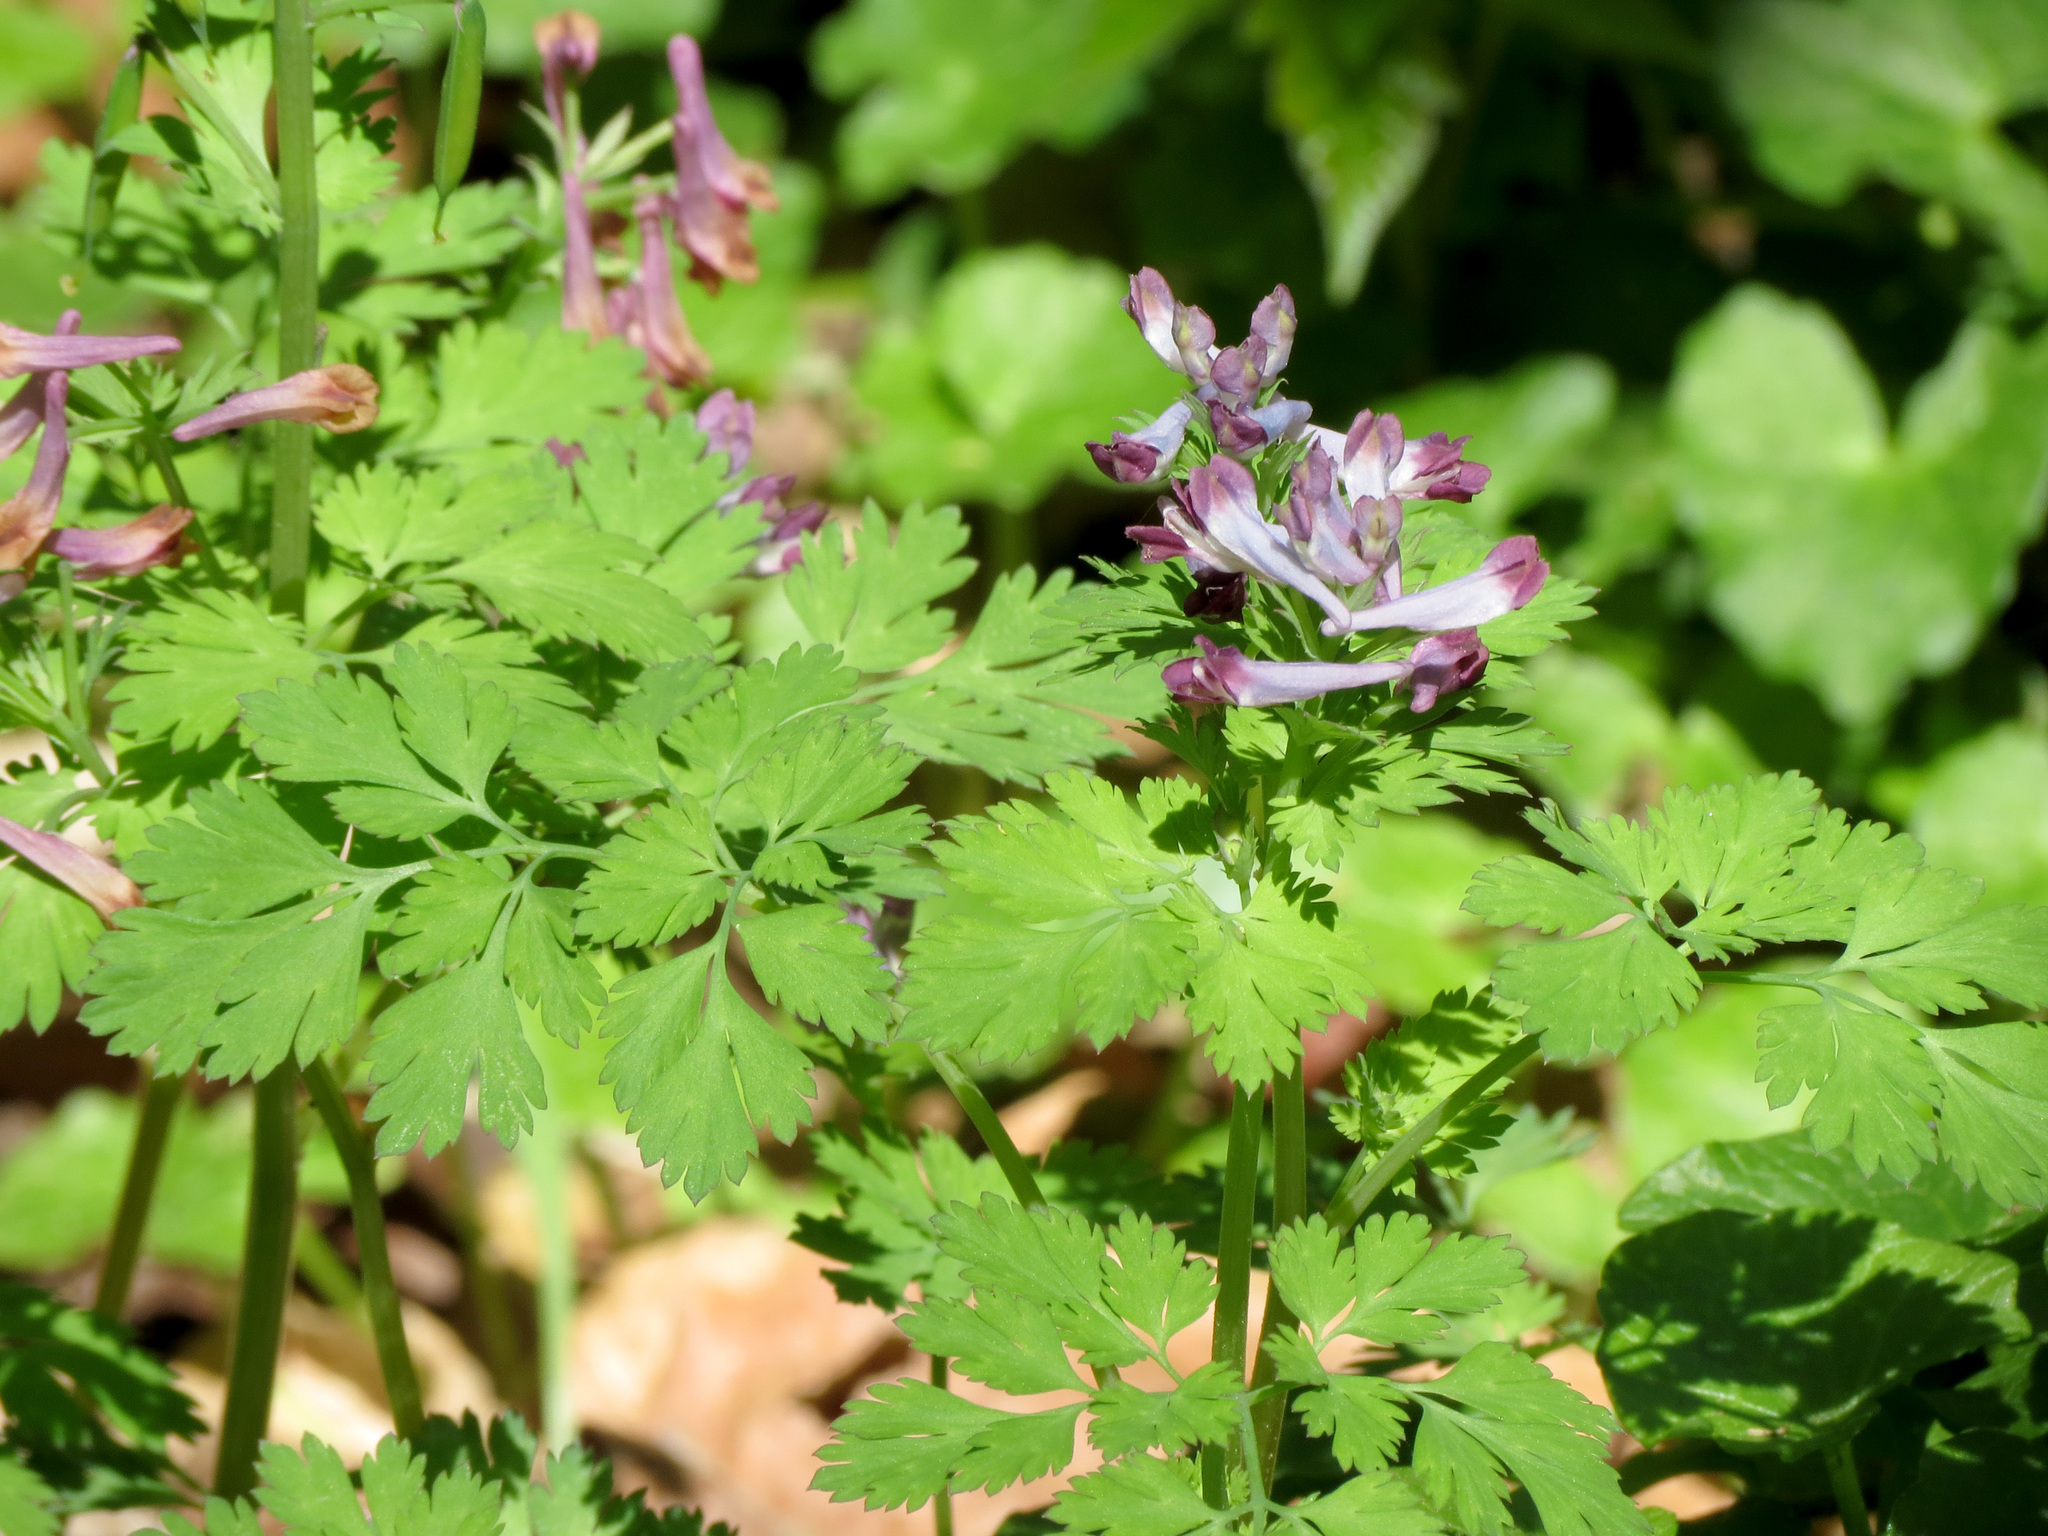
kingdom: Plantae
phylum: Tracheophyta
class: Magnoliopsida
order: Ranunculales
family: Papaveraceae
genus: Corydalis
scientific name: Corydalis incisa
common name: Incised fumewort
